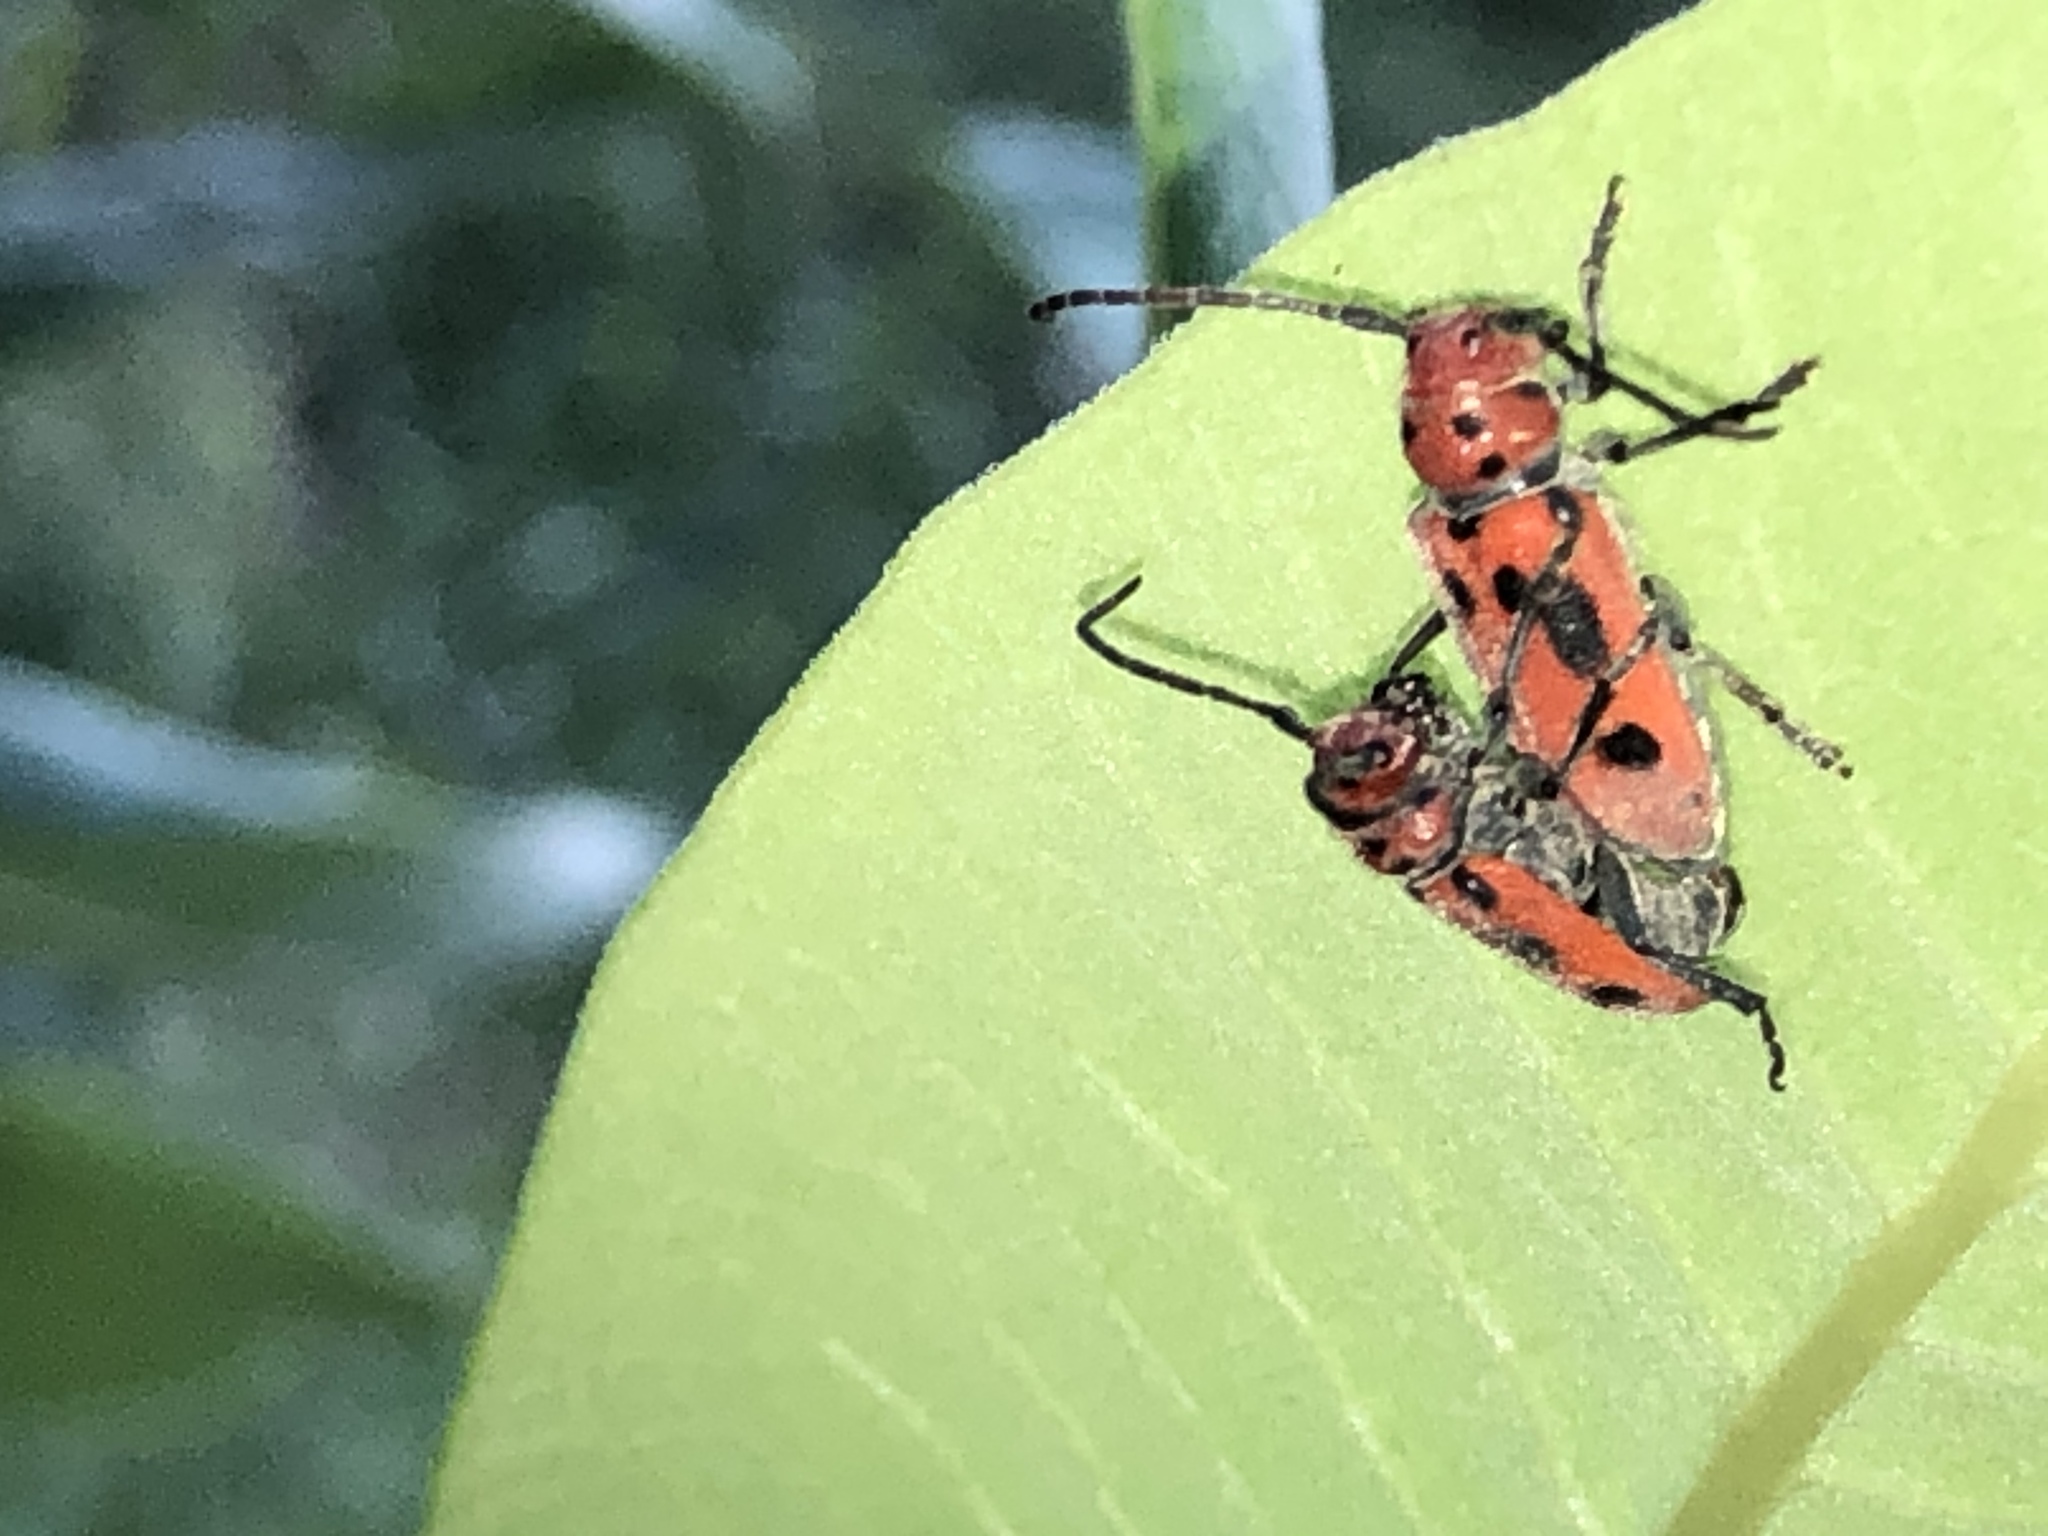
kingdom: Animalia
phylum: Arthropoda
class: Insecta
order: Coleoptera
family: Cerambycidae
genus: Tetraopes
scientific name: Tetraopes tetrophthalmus
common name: Red milkweed beetle
